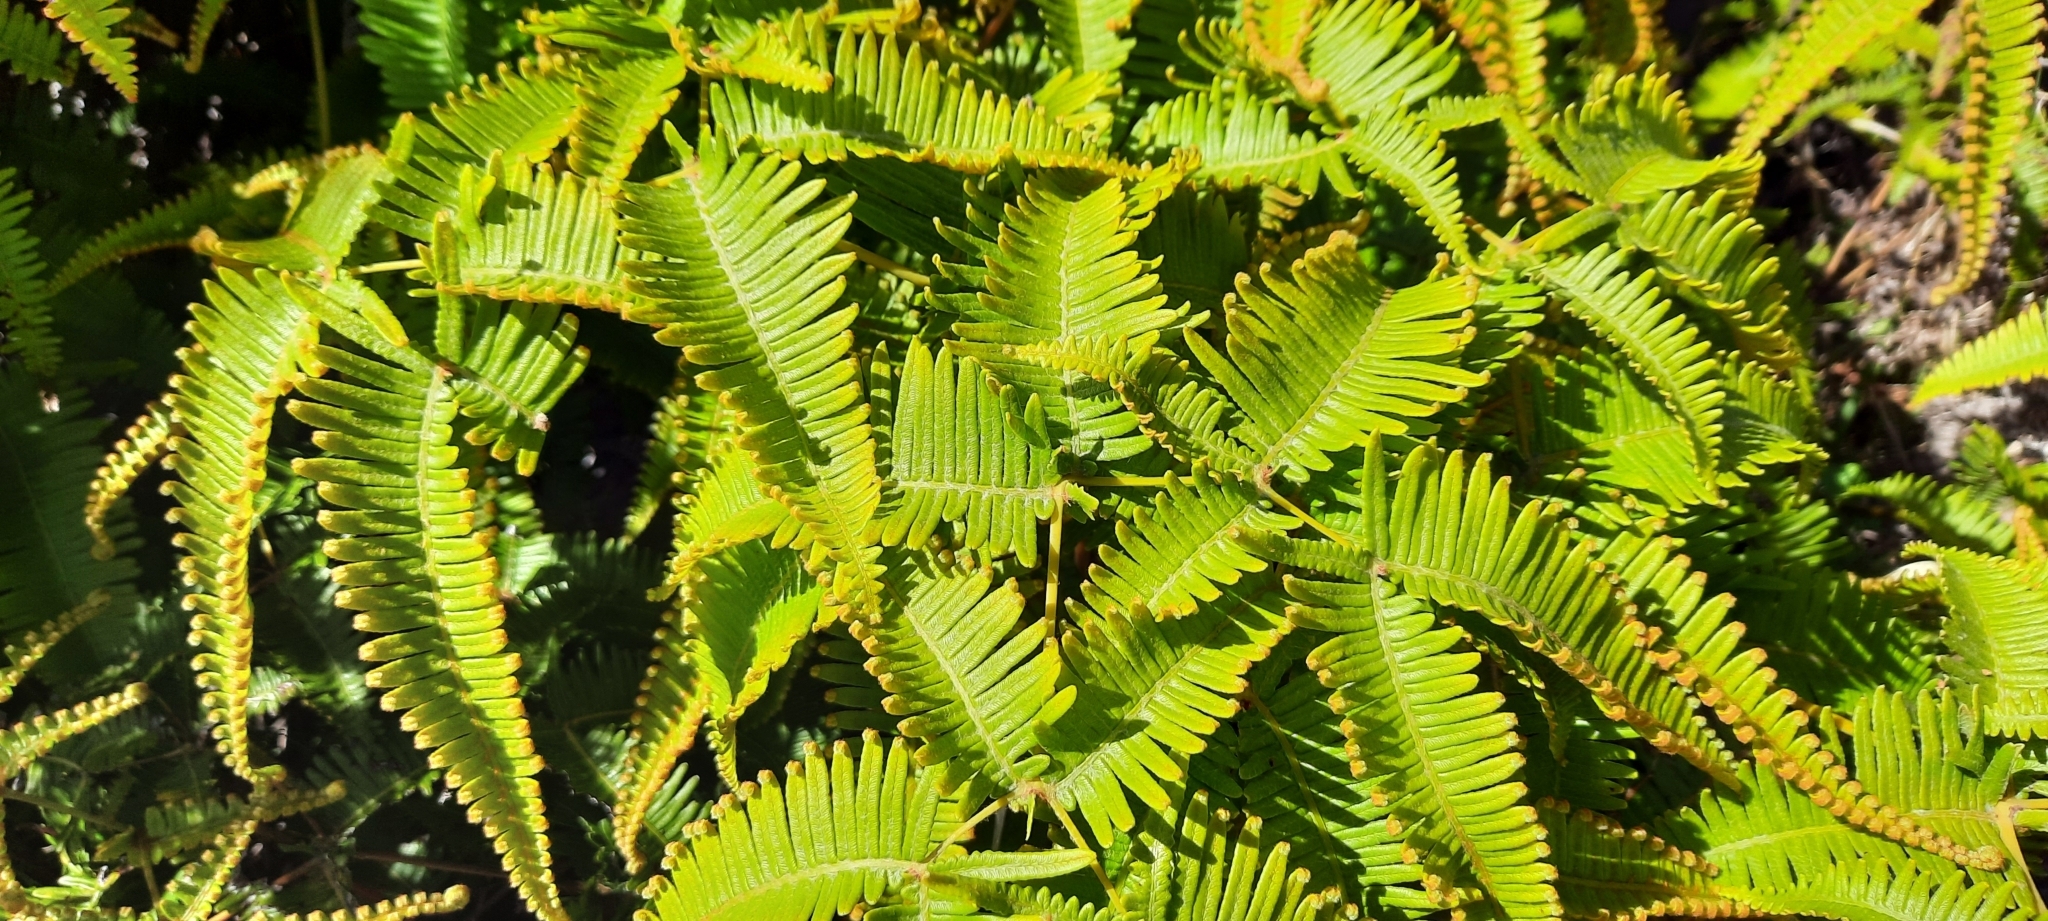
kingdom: Plantae
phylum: Tracheophyta
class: Polypodiopsida
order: Gleicheniales
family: Gleicheniaceae
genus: Dicranopteris
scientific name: Dicranopteris linearis
